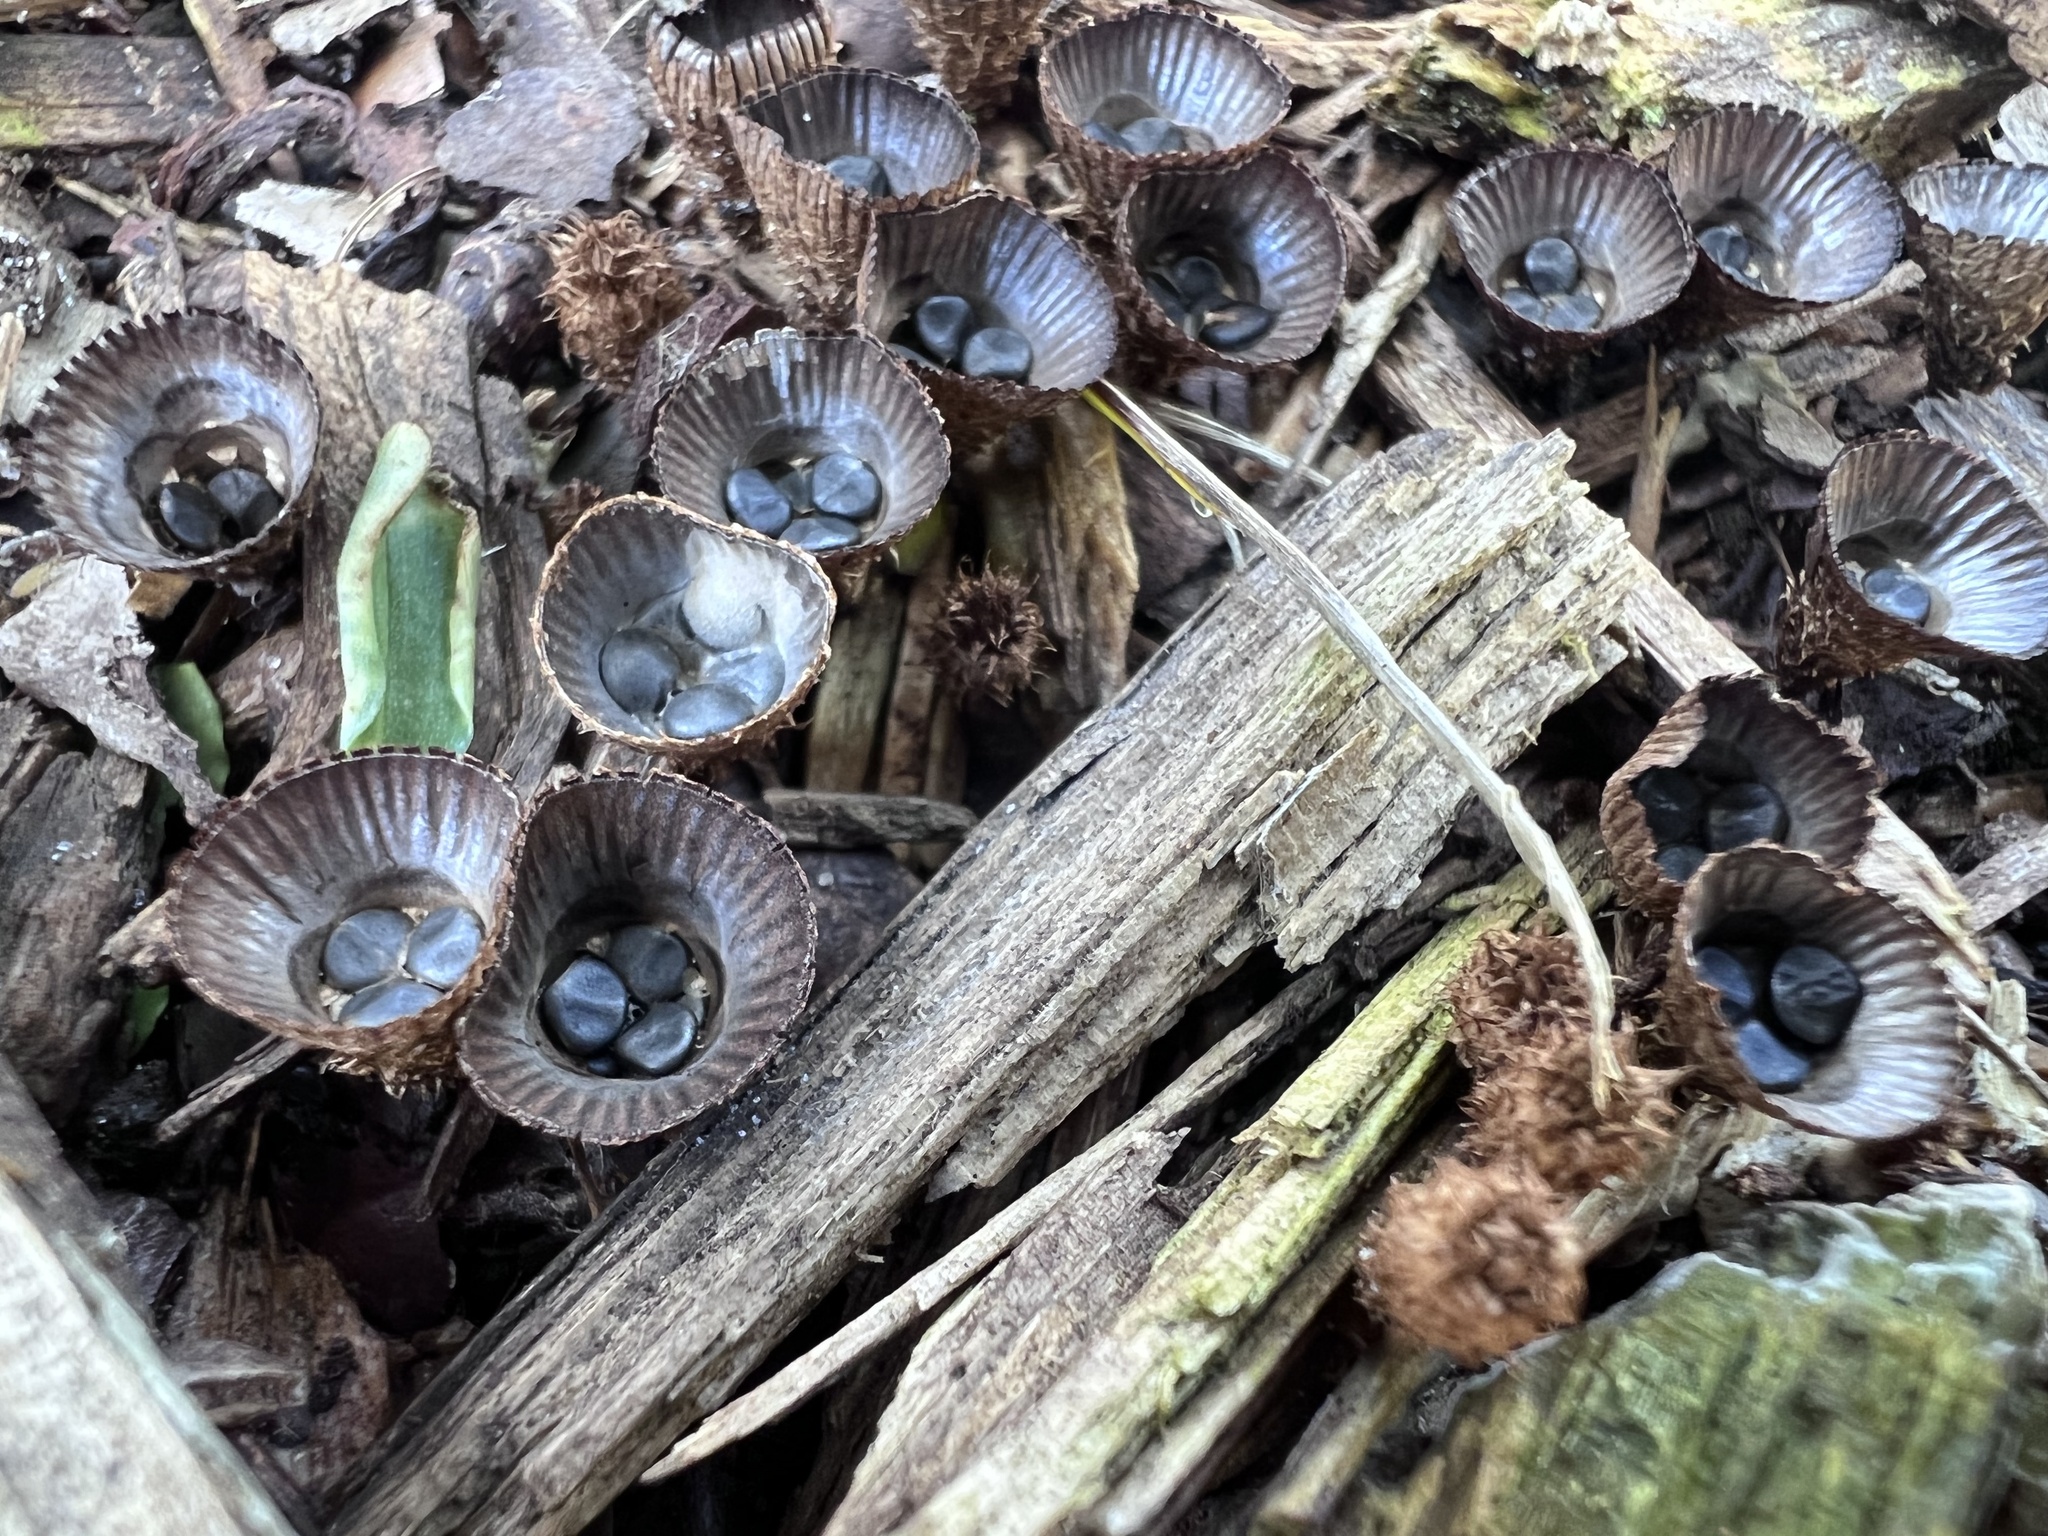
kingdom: Fungi
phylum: Basidiomycota
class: Agaricomycetes
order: Agaricales
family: Agaricaceae
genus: Cyathus
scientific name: Cyathus striatus
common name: Fluted bird's nest
